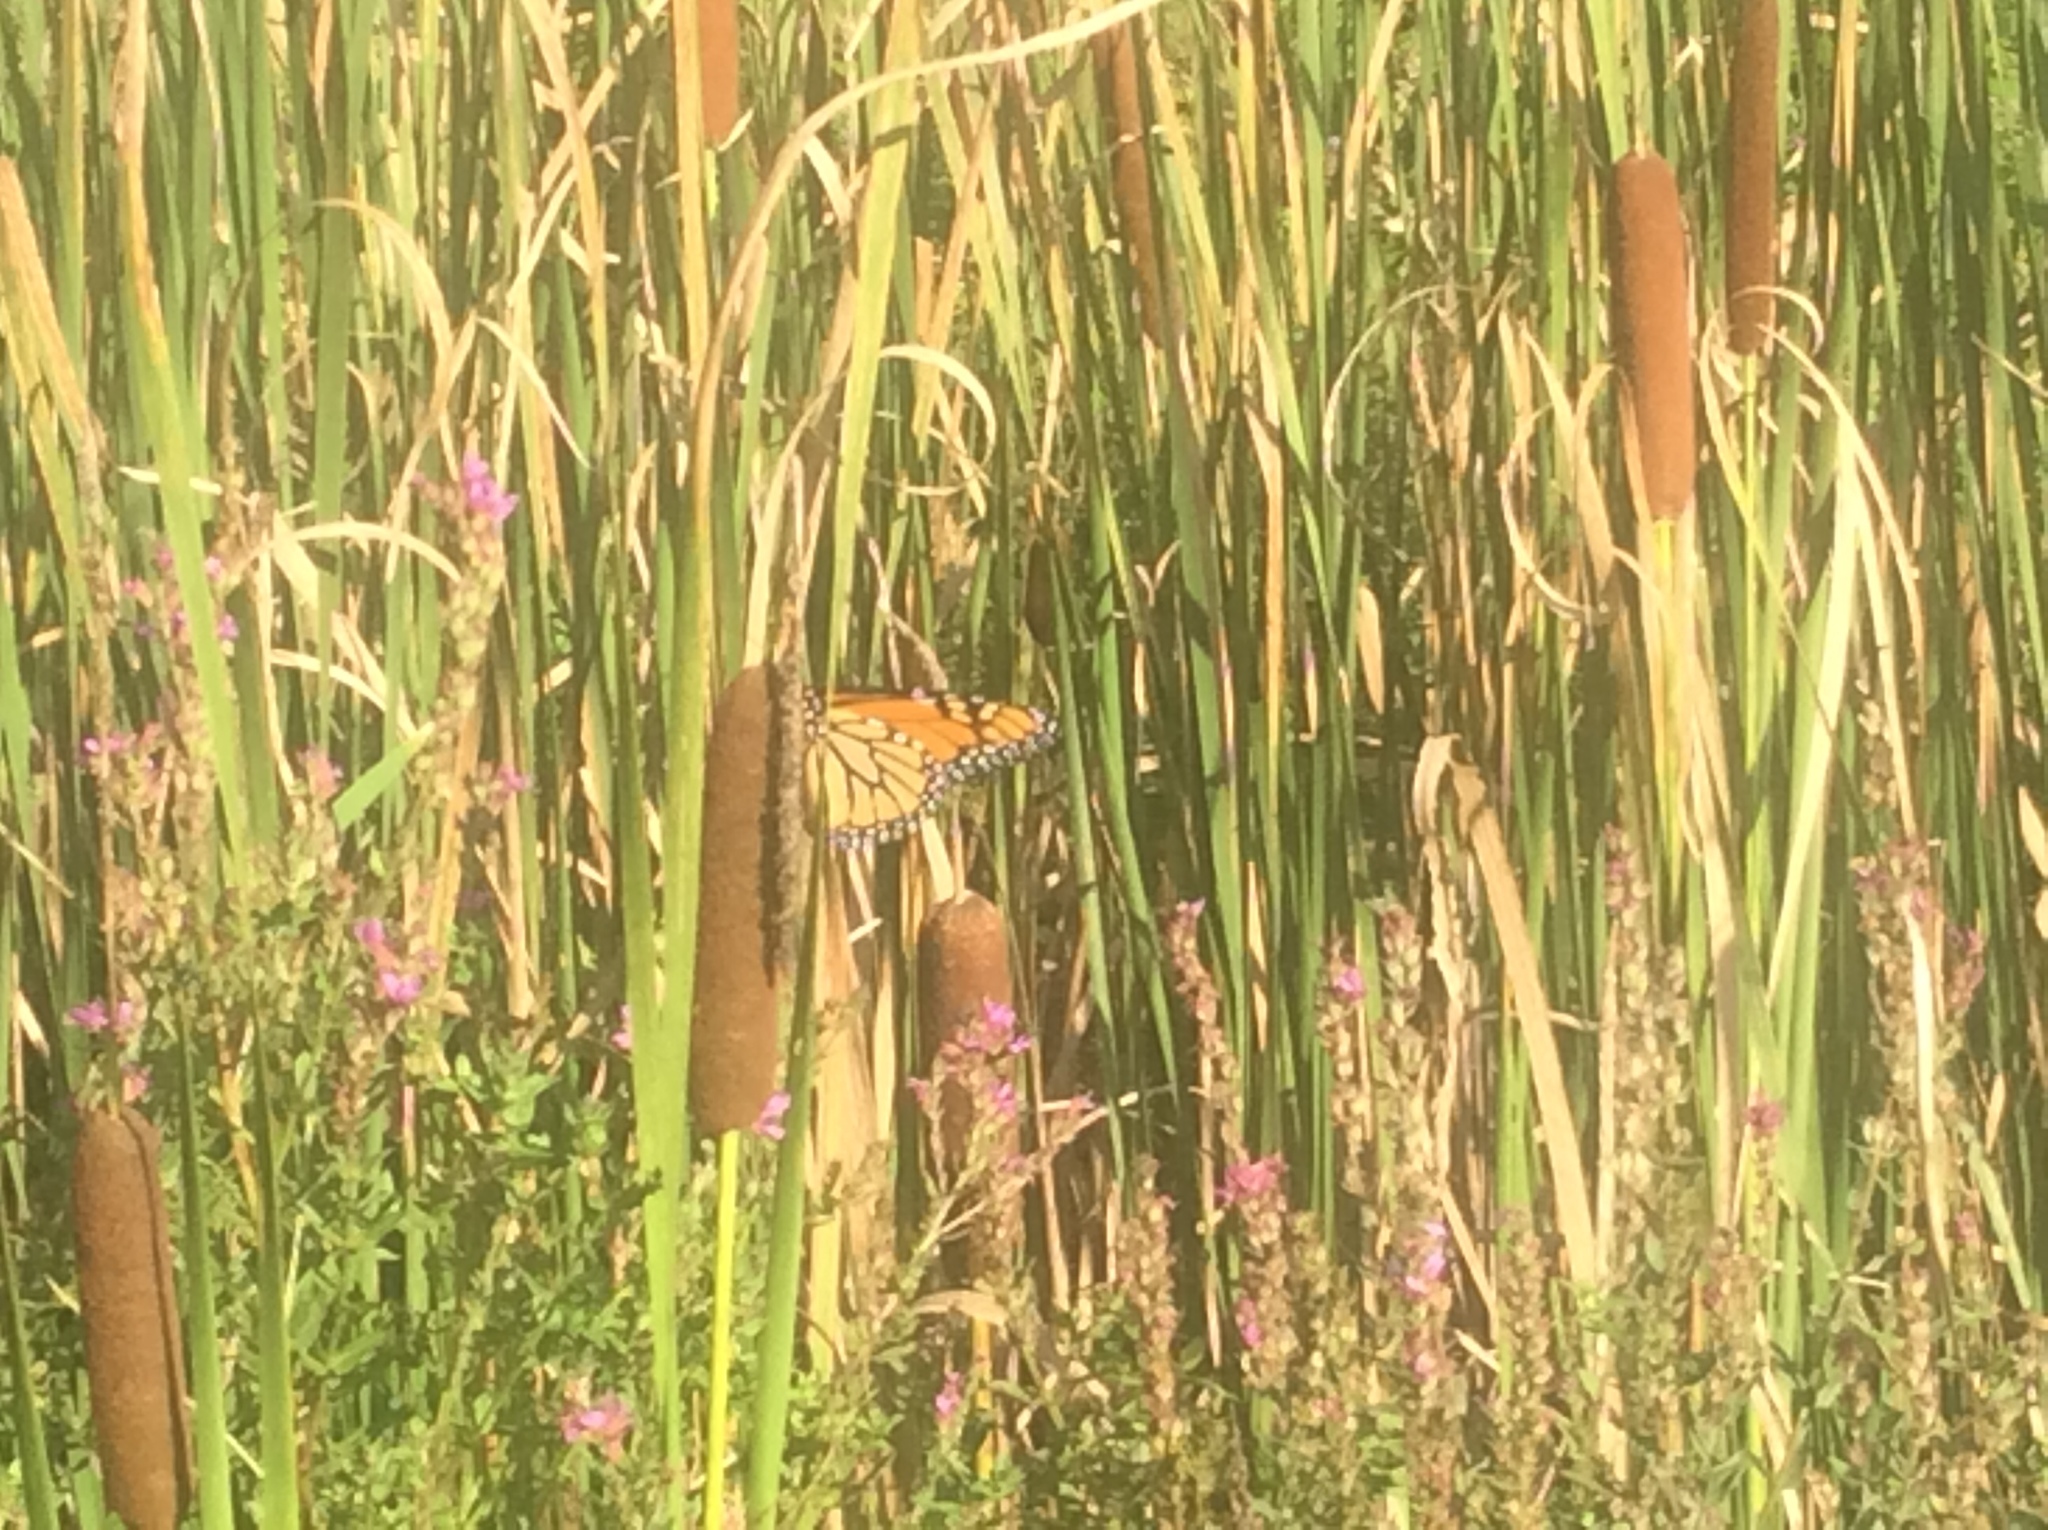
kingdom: Animalia
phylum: Arthropoda
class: Insecta
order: Lepidoptera
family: Nymphalidae
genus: Danaus
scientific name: Danaus plexippus
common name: Monarch
